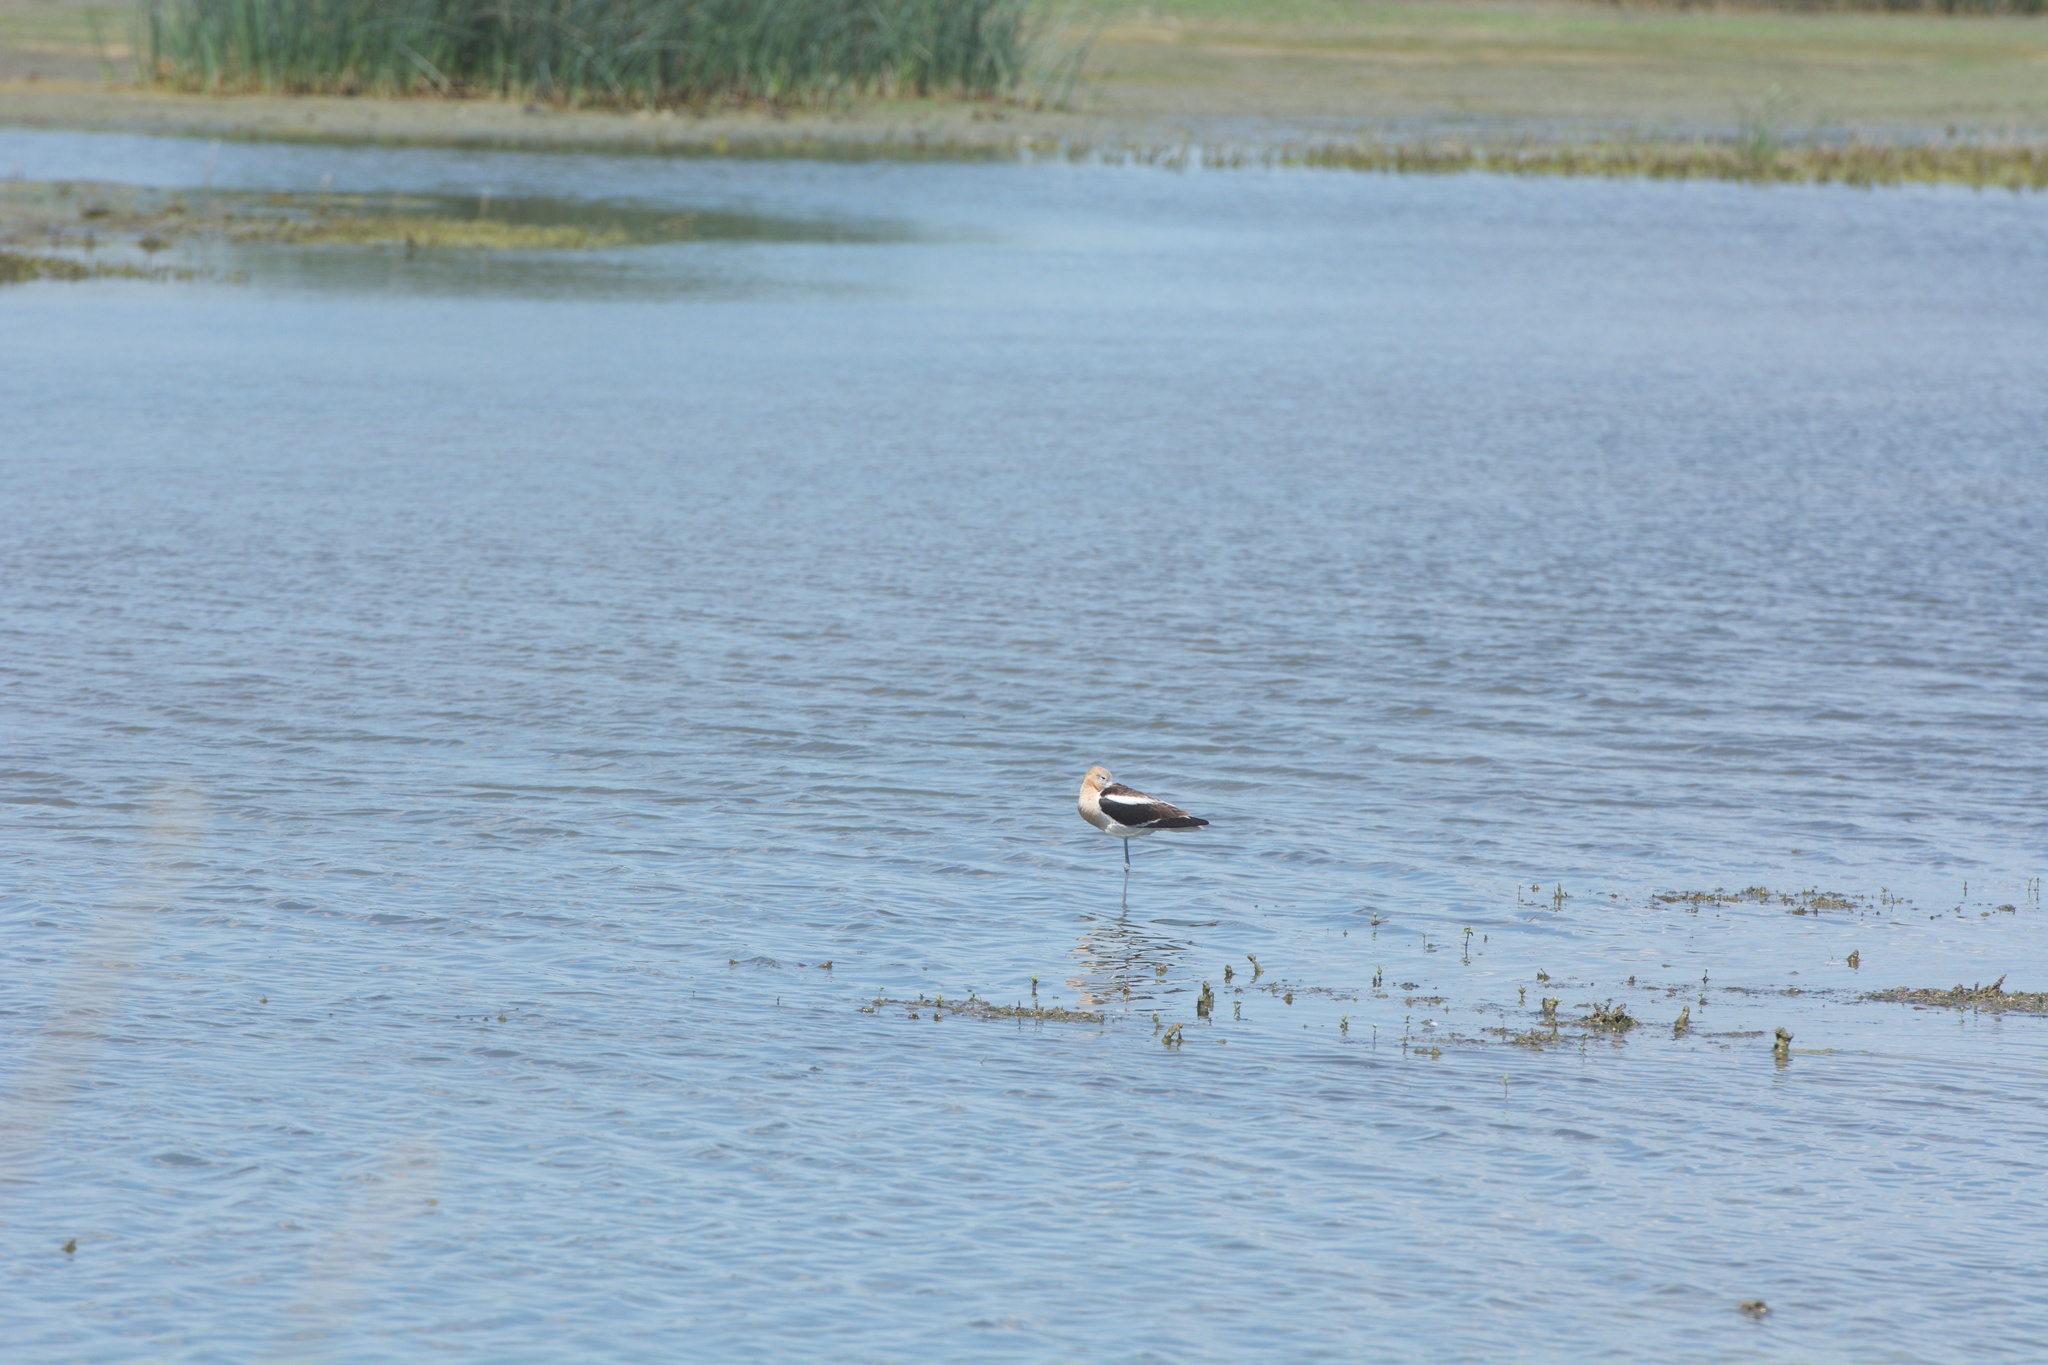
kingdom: Animalia
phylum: Chordata
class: Aves
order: Charadriiformes
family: Recurvirostridae
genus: Recurvirostra
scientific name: Recurvirostra americana
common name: American avocet
